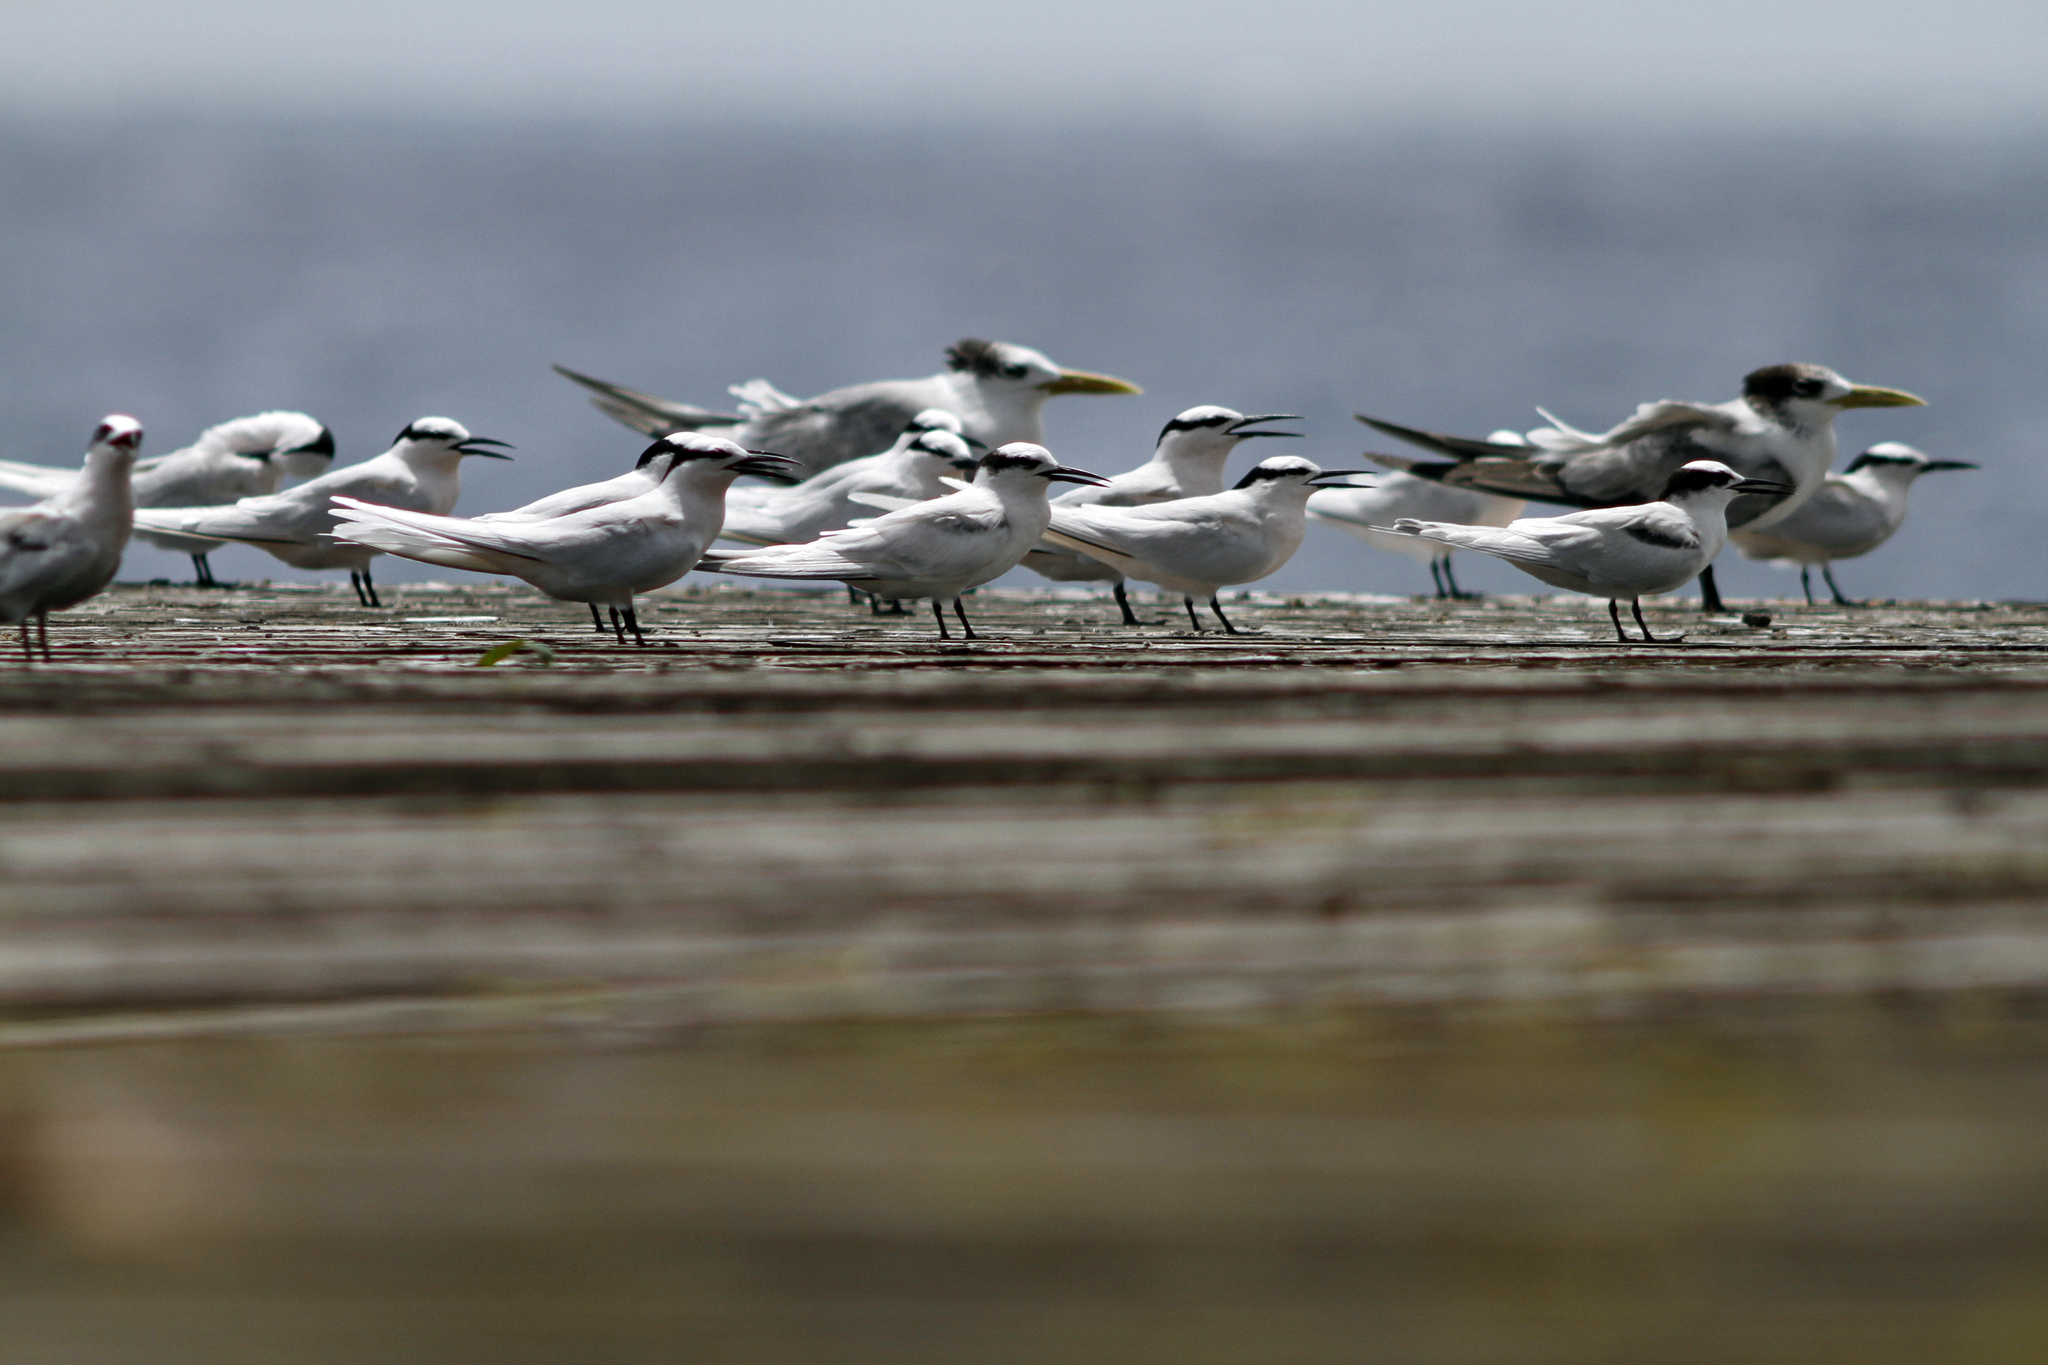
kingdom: Animalia
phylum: Chordata
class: Aves
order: Charadriiformes
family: Laridae
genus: Sterna
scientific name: Sterna sumatrana
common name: Black-naped tern
